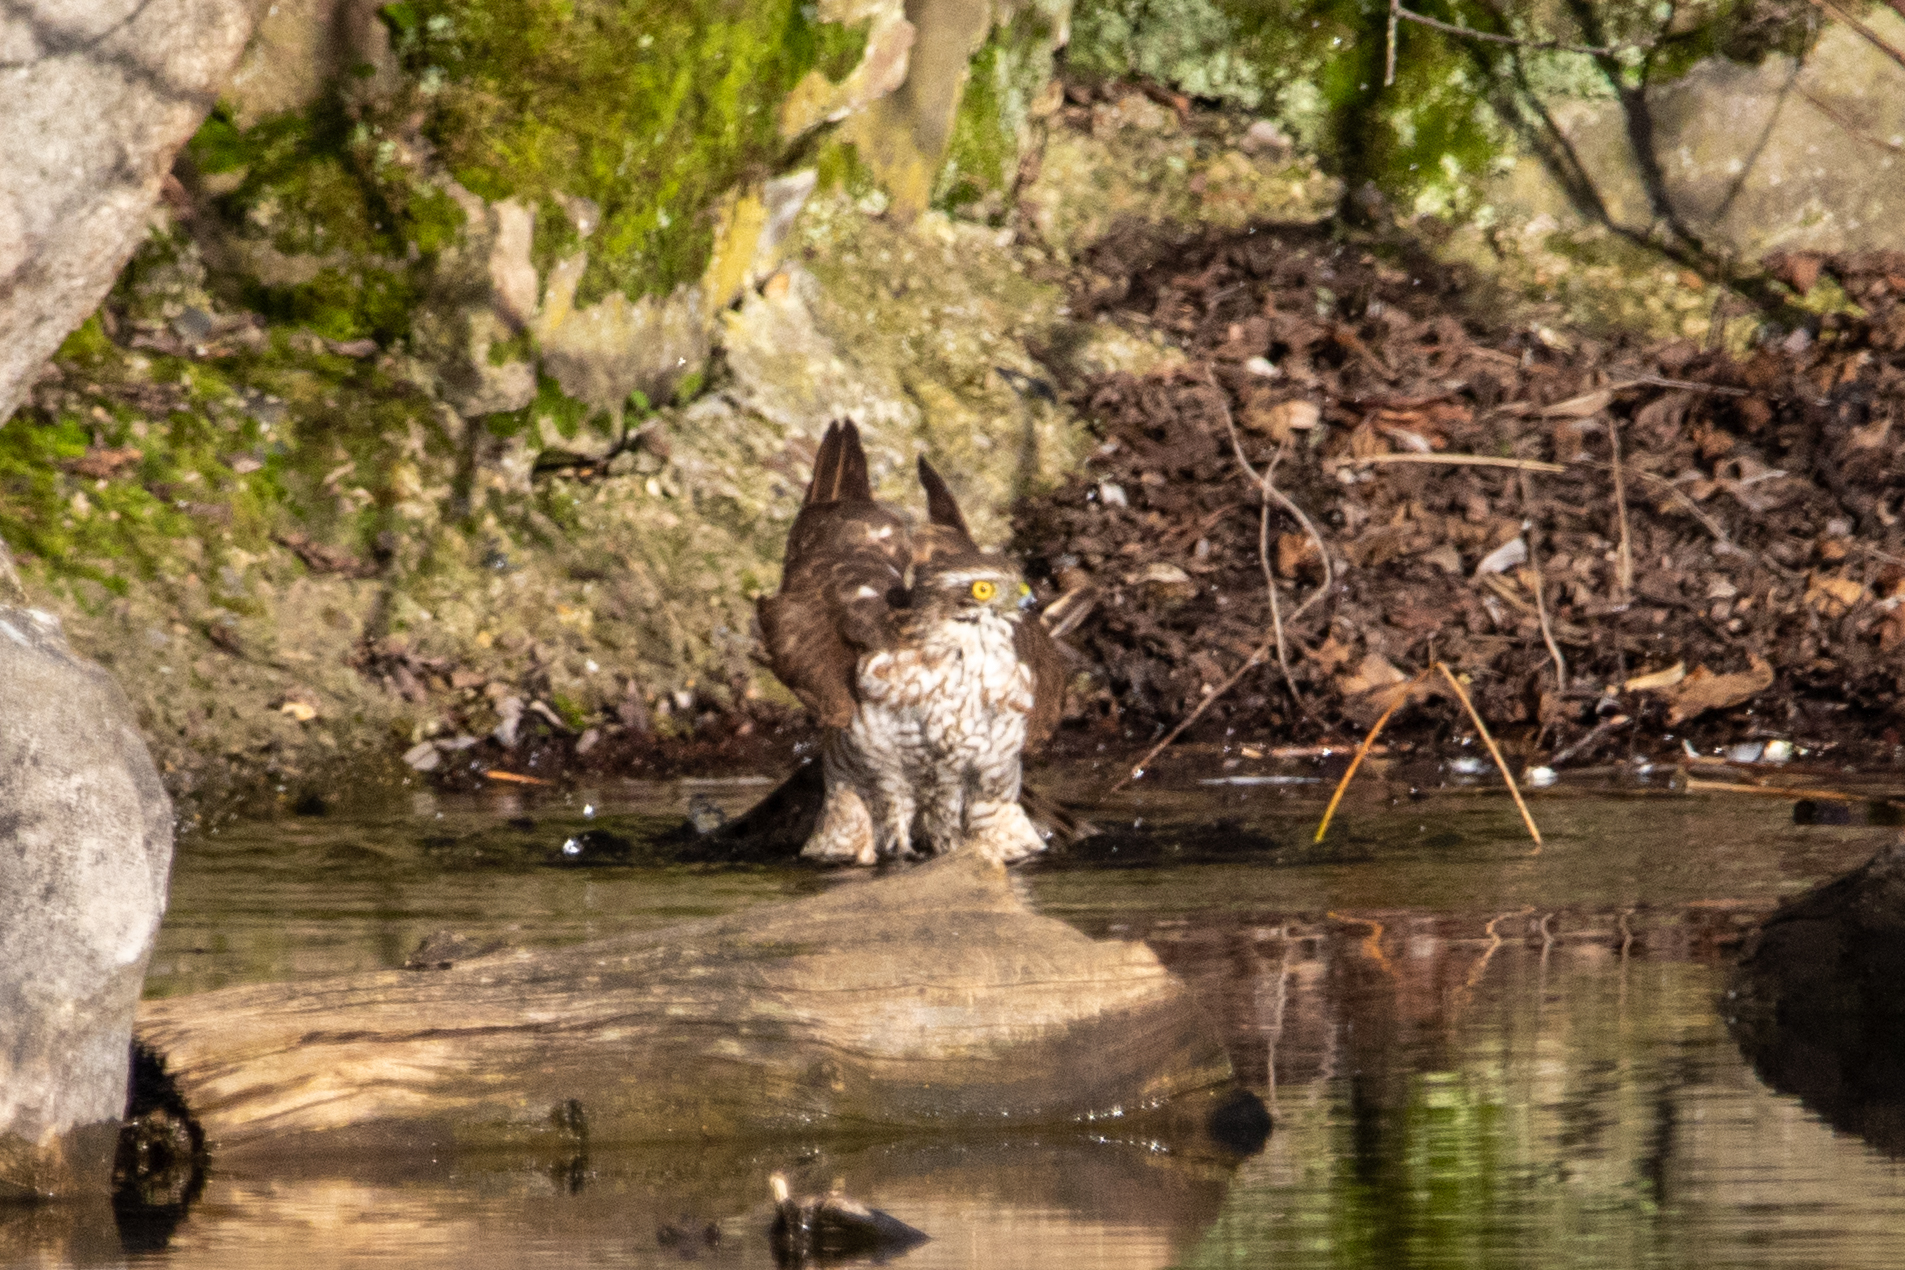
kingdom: Animalia
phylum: Chordata
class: Aves
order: Accipitriformes
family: Accipitridae
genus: Accipiter
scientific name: Accipiter nisus
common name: Eurasian sparrowhawk
